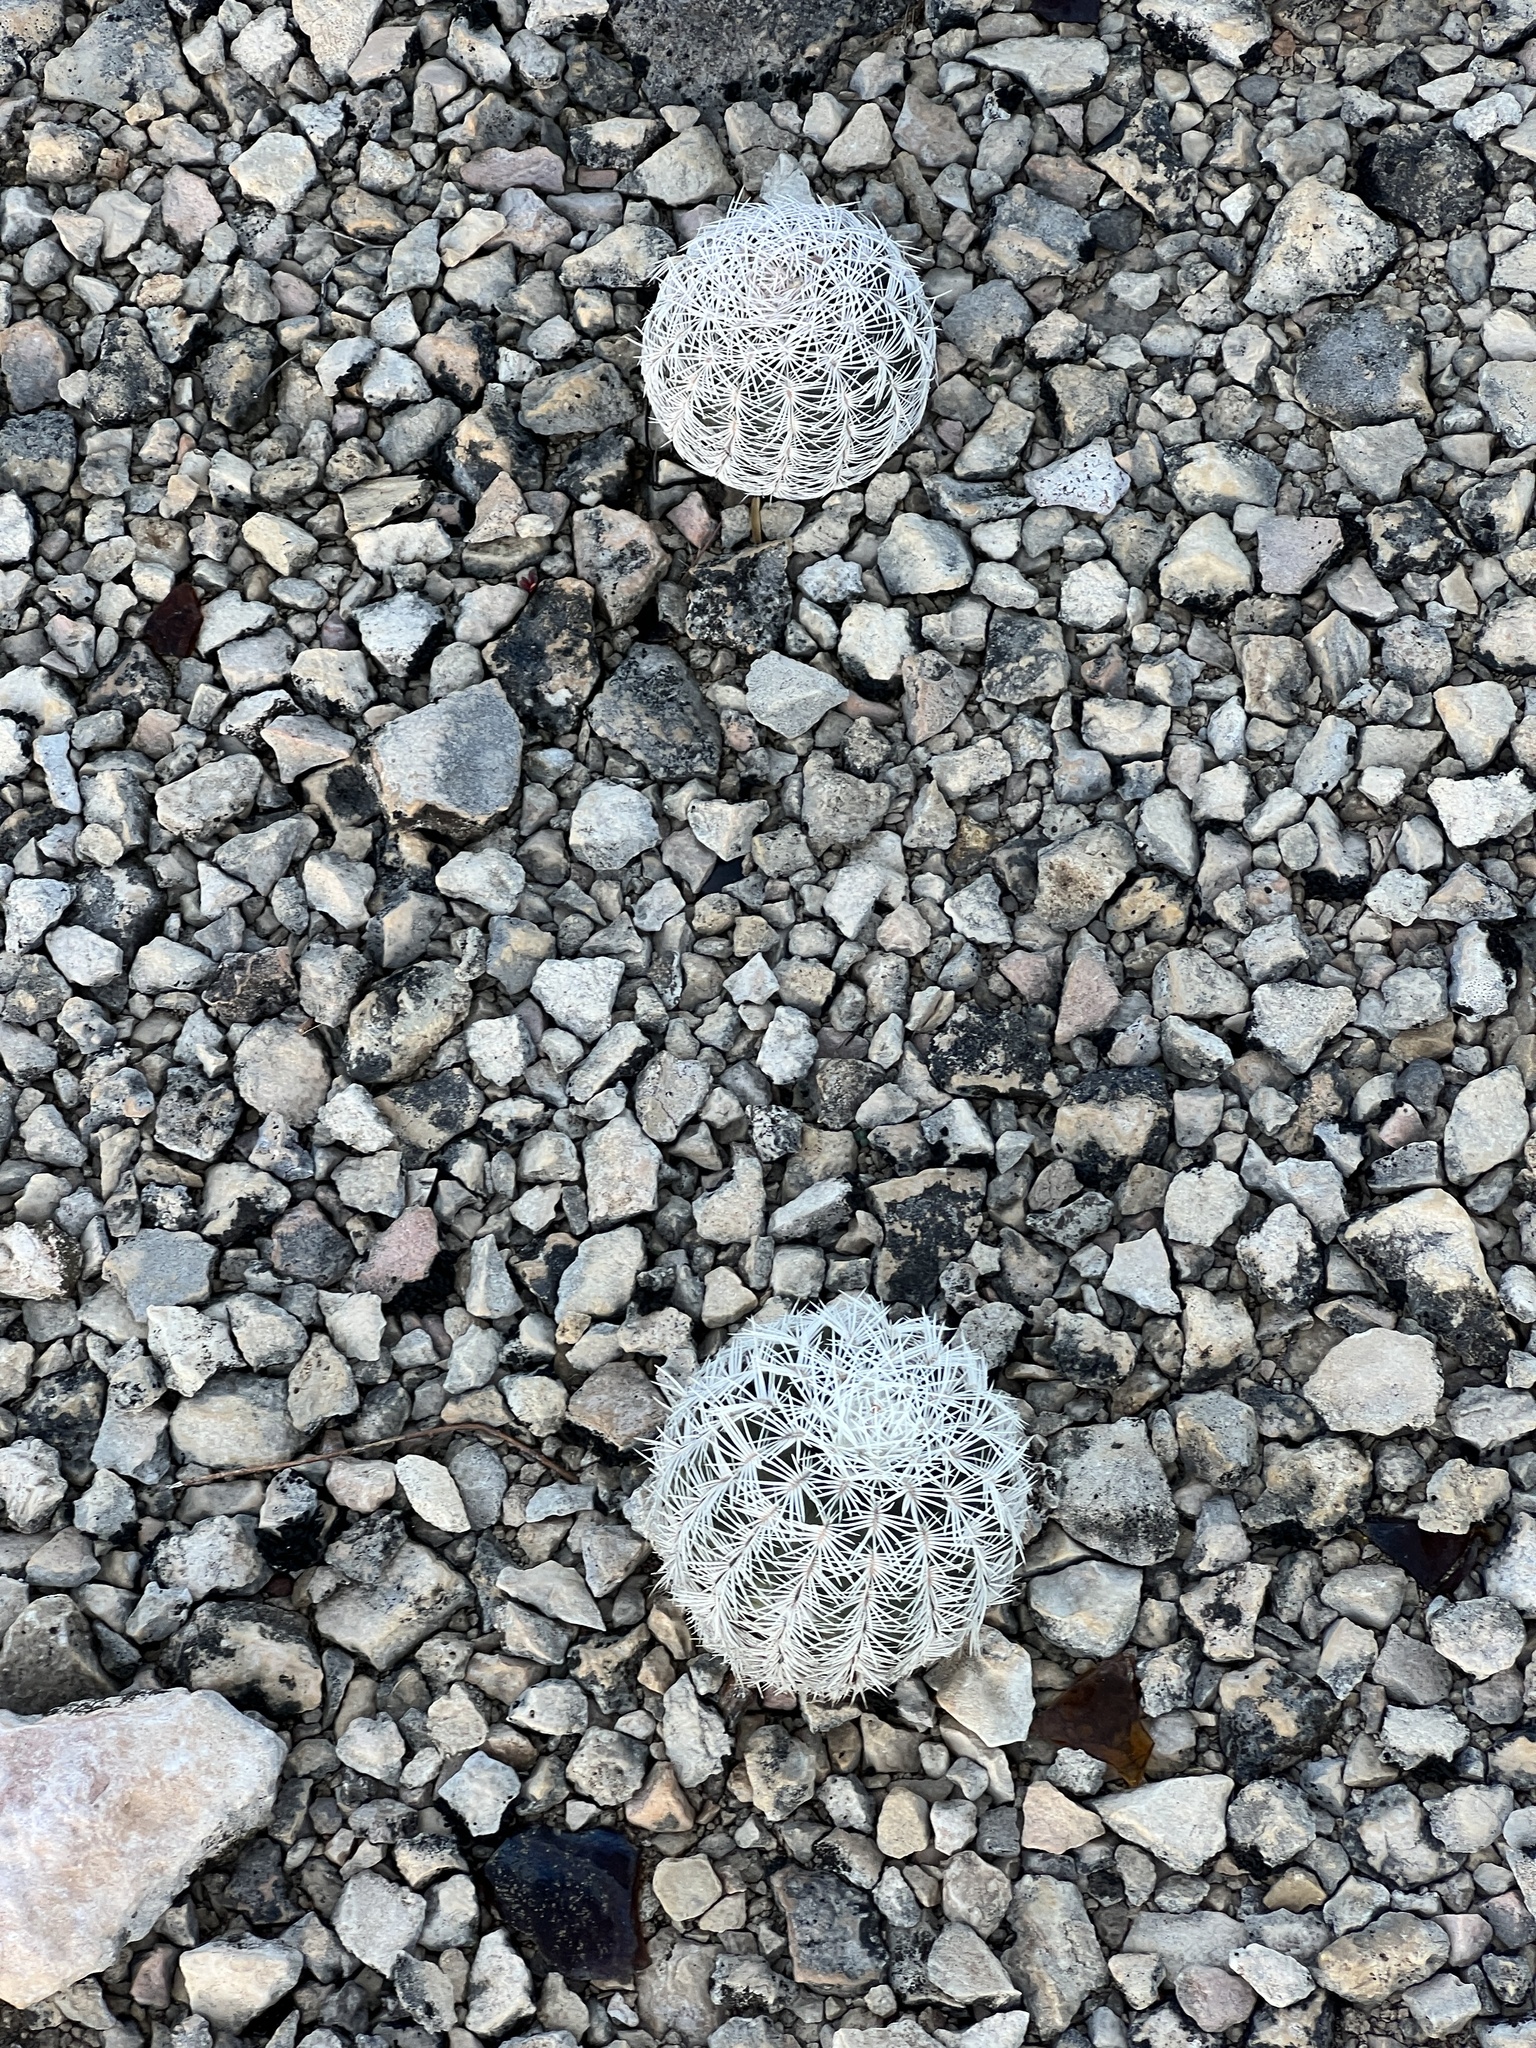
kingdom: Plantae
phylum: Tracheophyta
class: Magnoliopsida
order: Caryophyllales
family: Cactaceae
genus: Echinocereus
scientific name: Echinocereus reichenbachii
